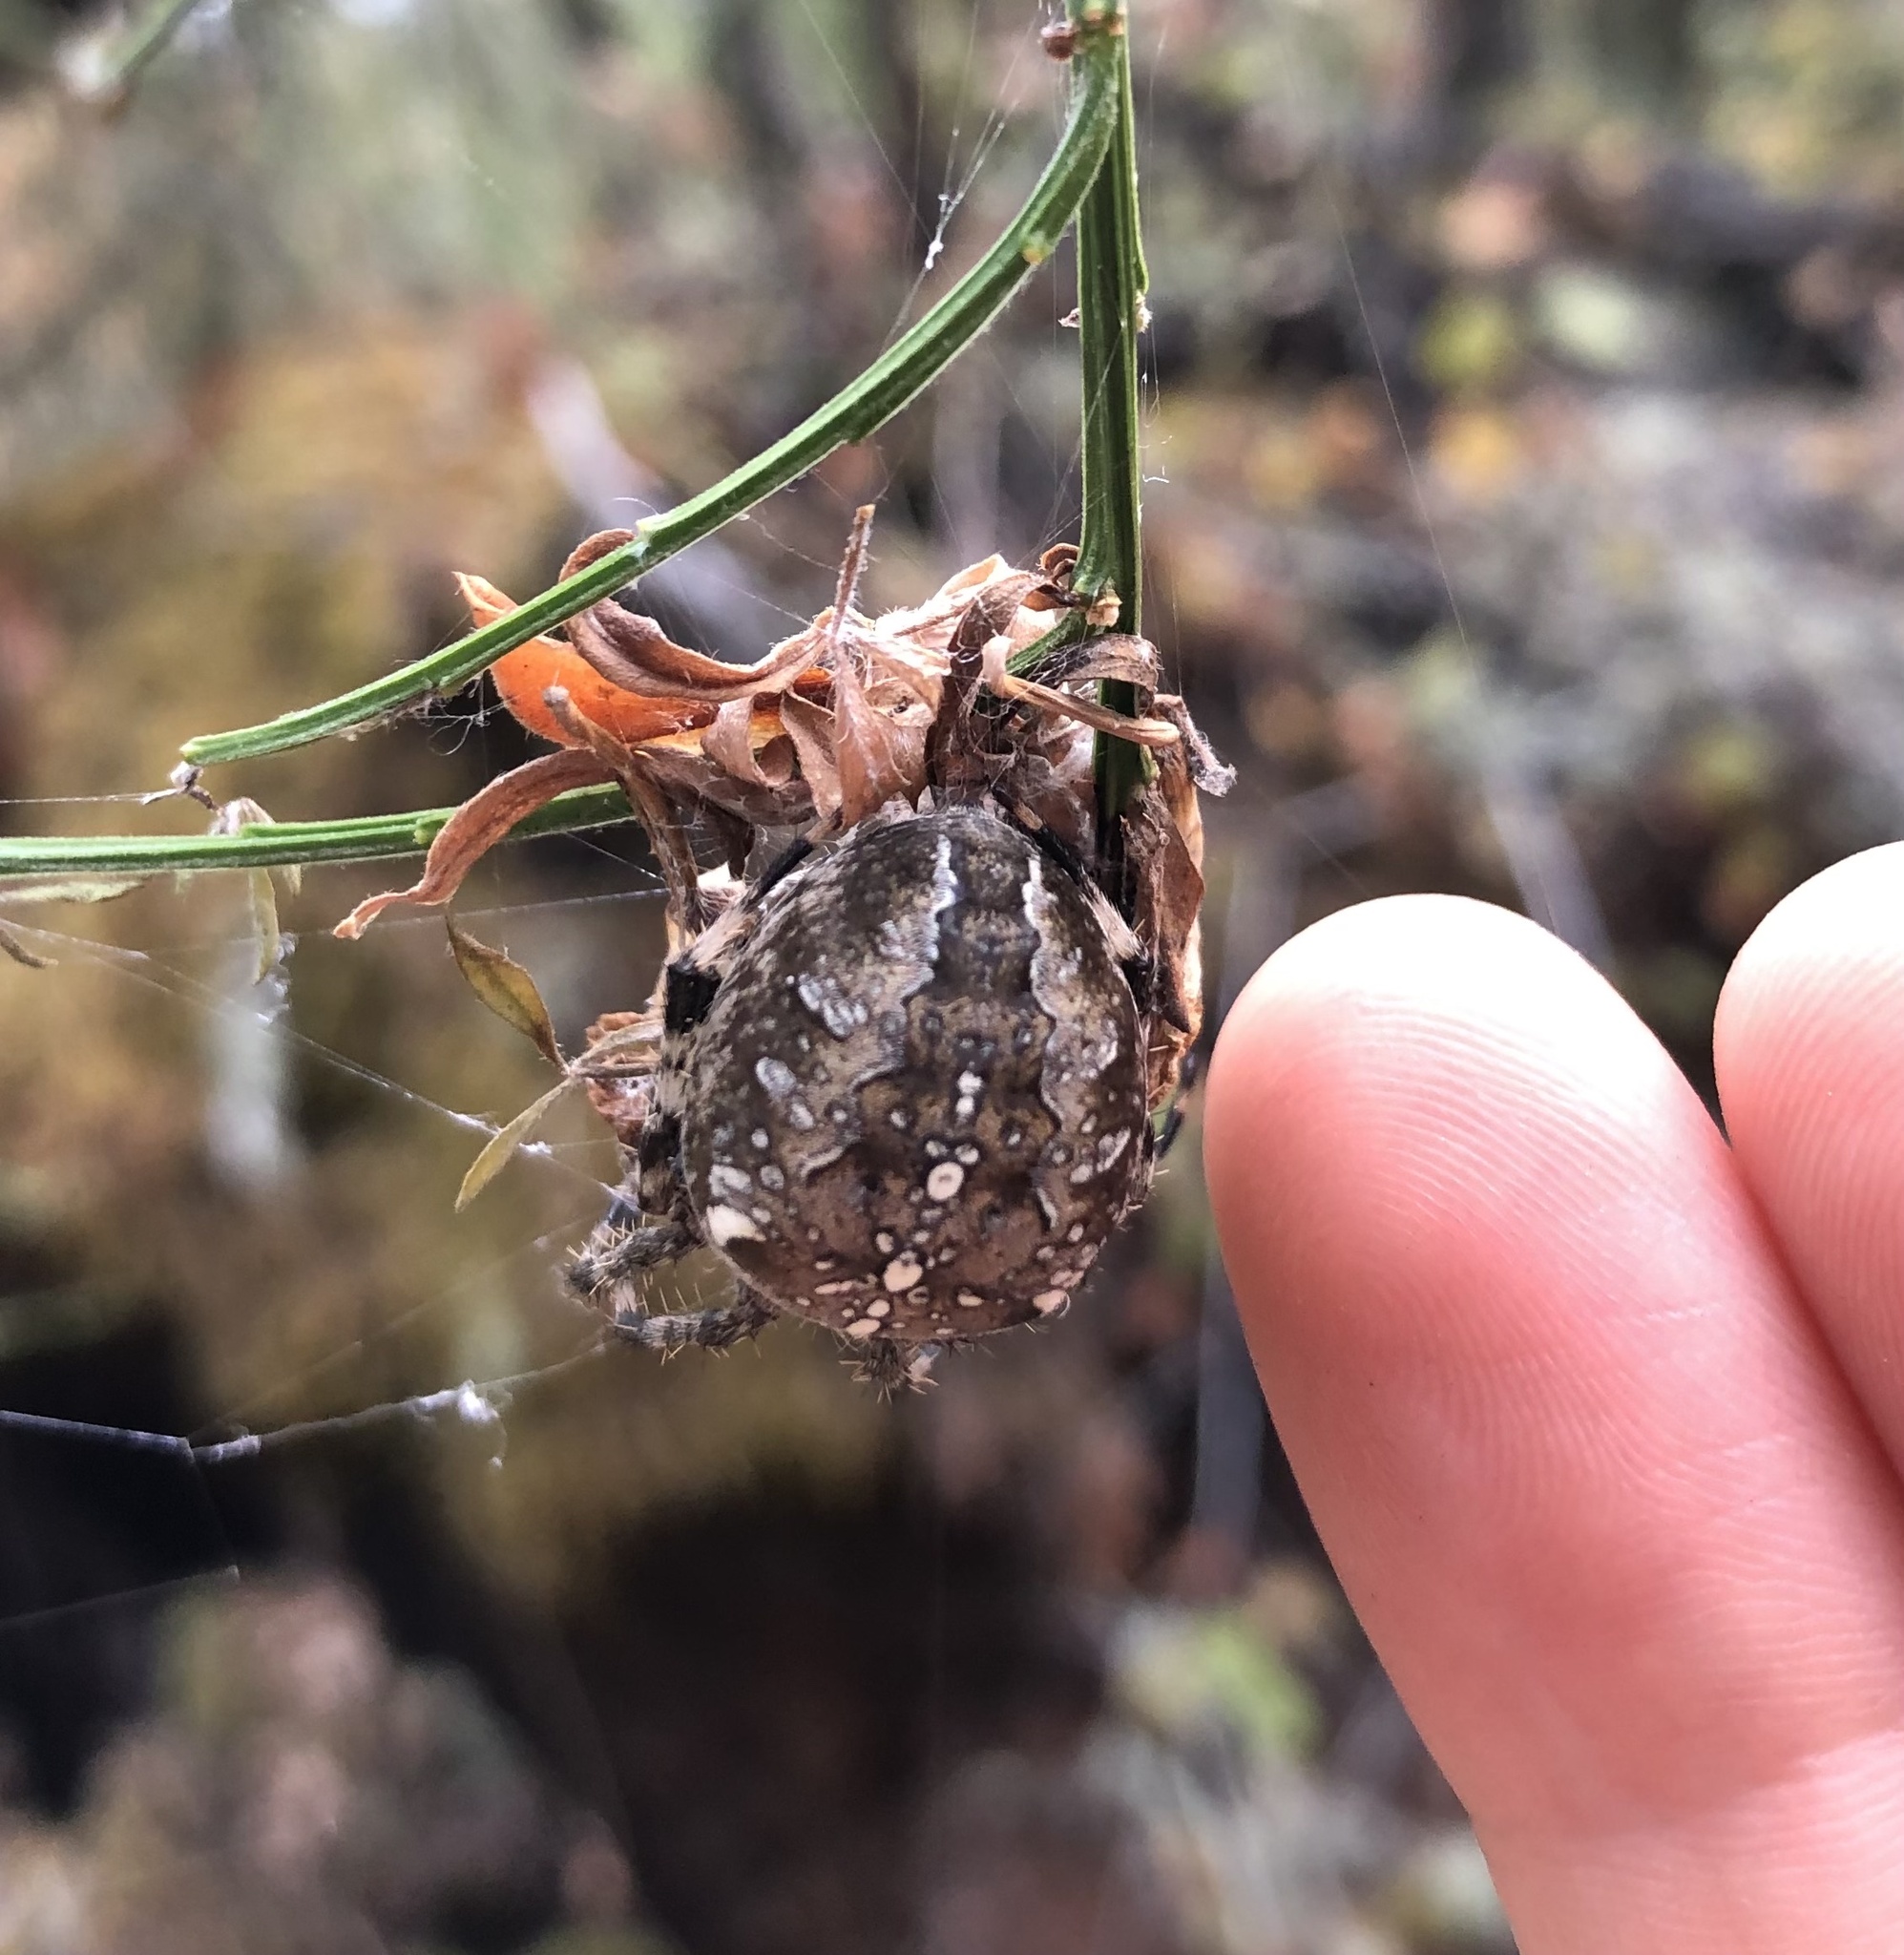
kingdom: Animalia
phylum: Arthropoda
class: Arachnida
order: Araneae
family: Araneidae
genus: Araneus
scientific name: Araneus diadematus
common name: Cross orbweaver
